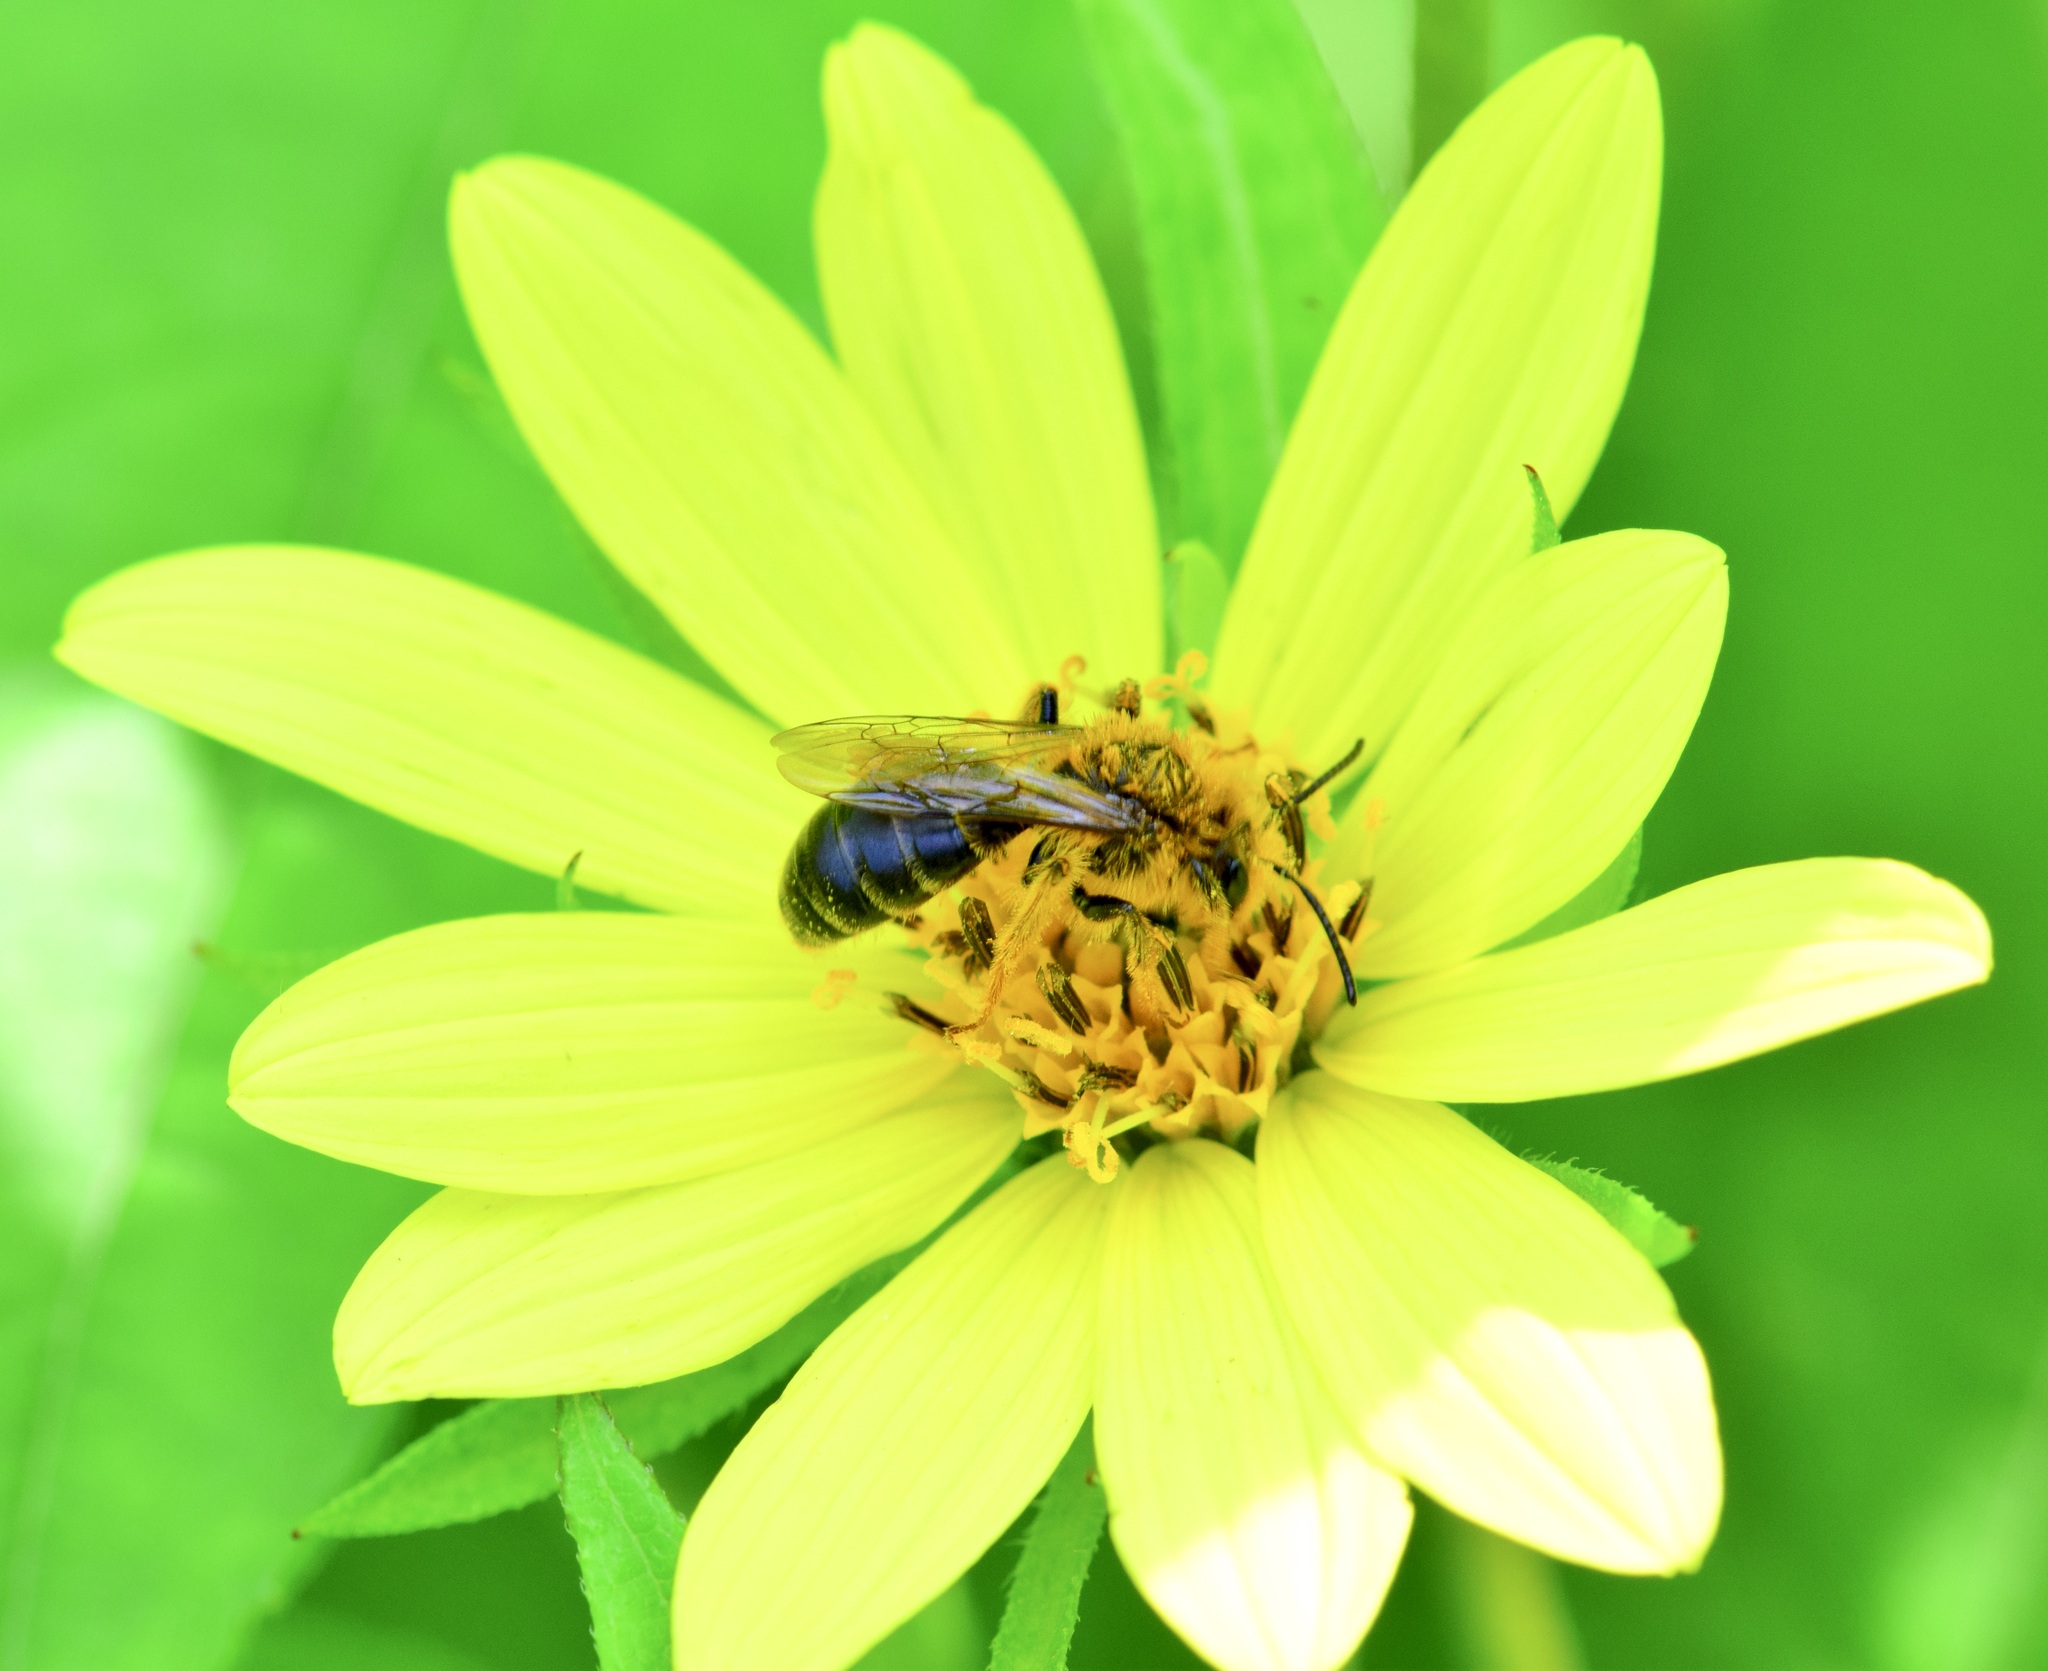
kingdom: Animalia
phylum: Arthropoda
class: Insecta
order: Hymenoptera
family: Andrenidae
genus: Andrena
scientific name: Andrena helianthi
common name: Sunflower mining bee
